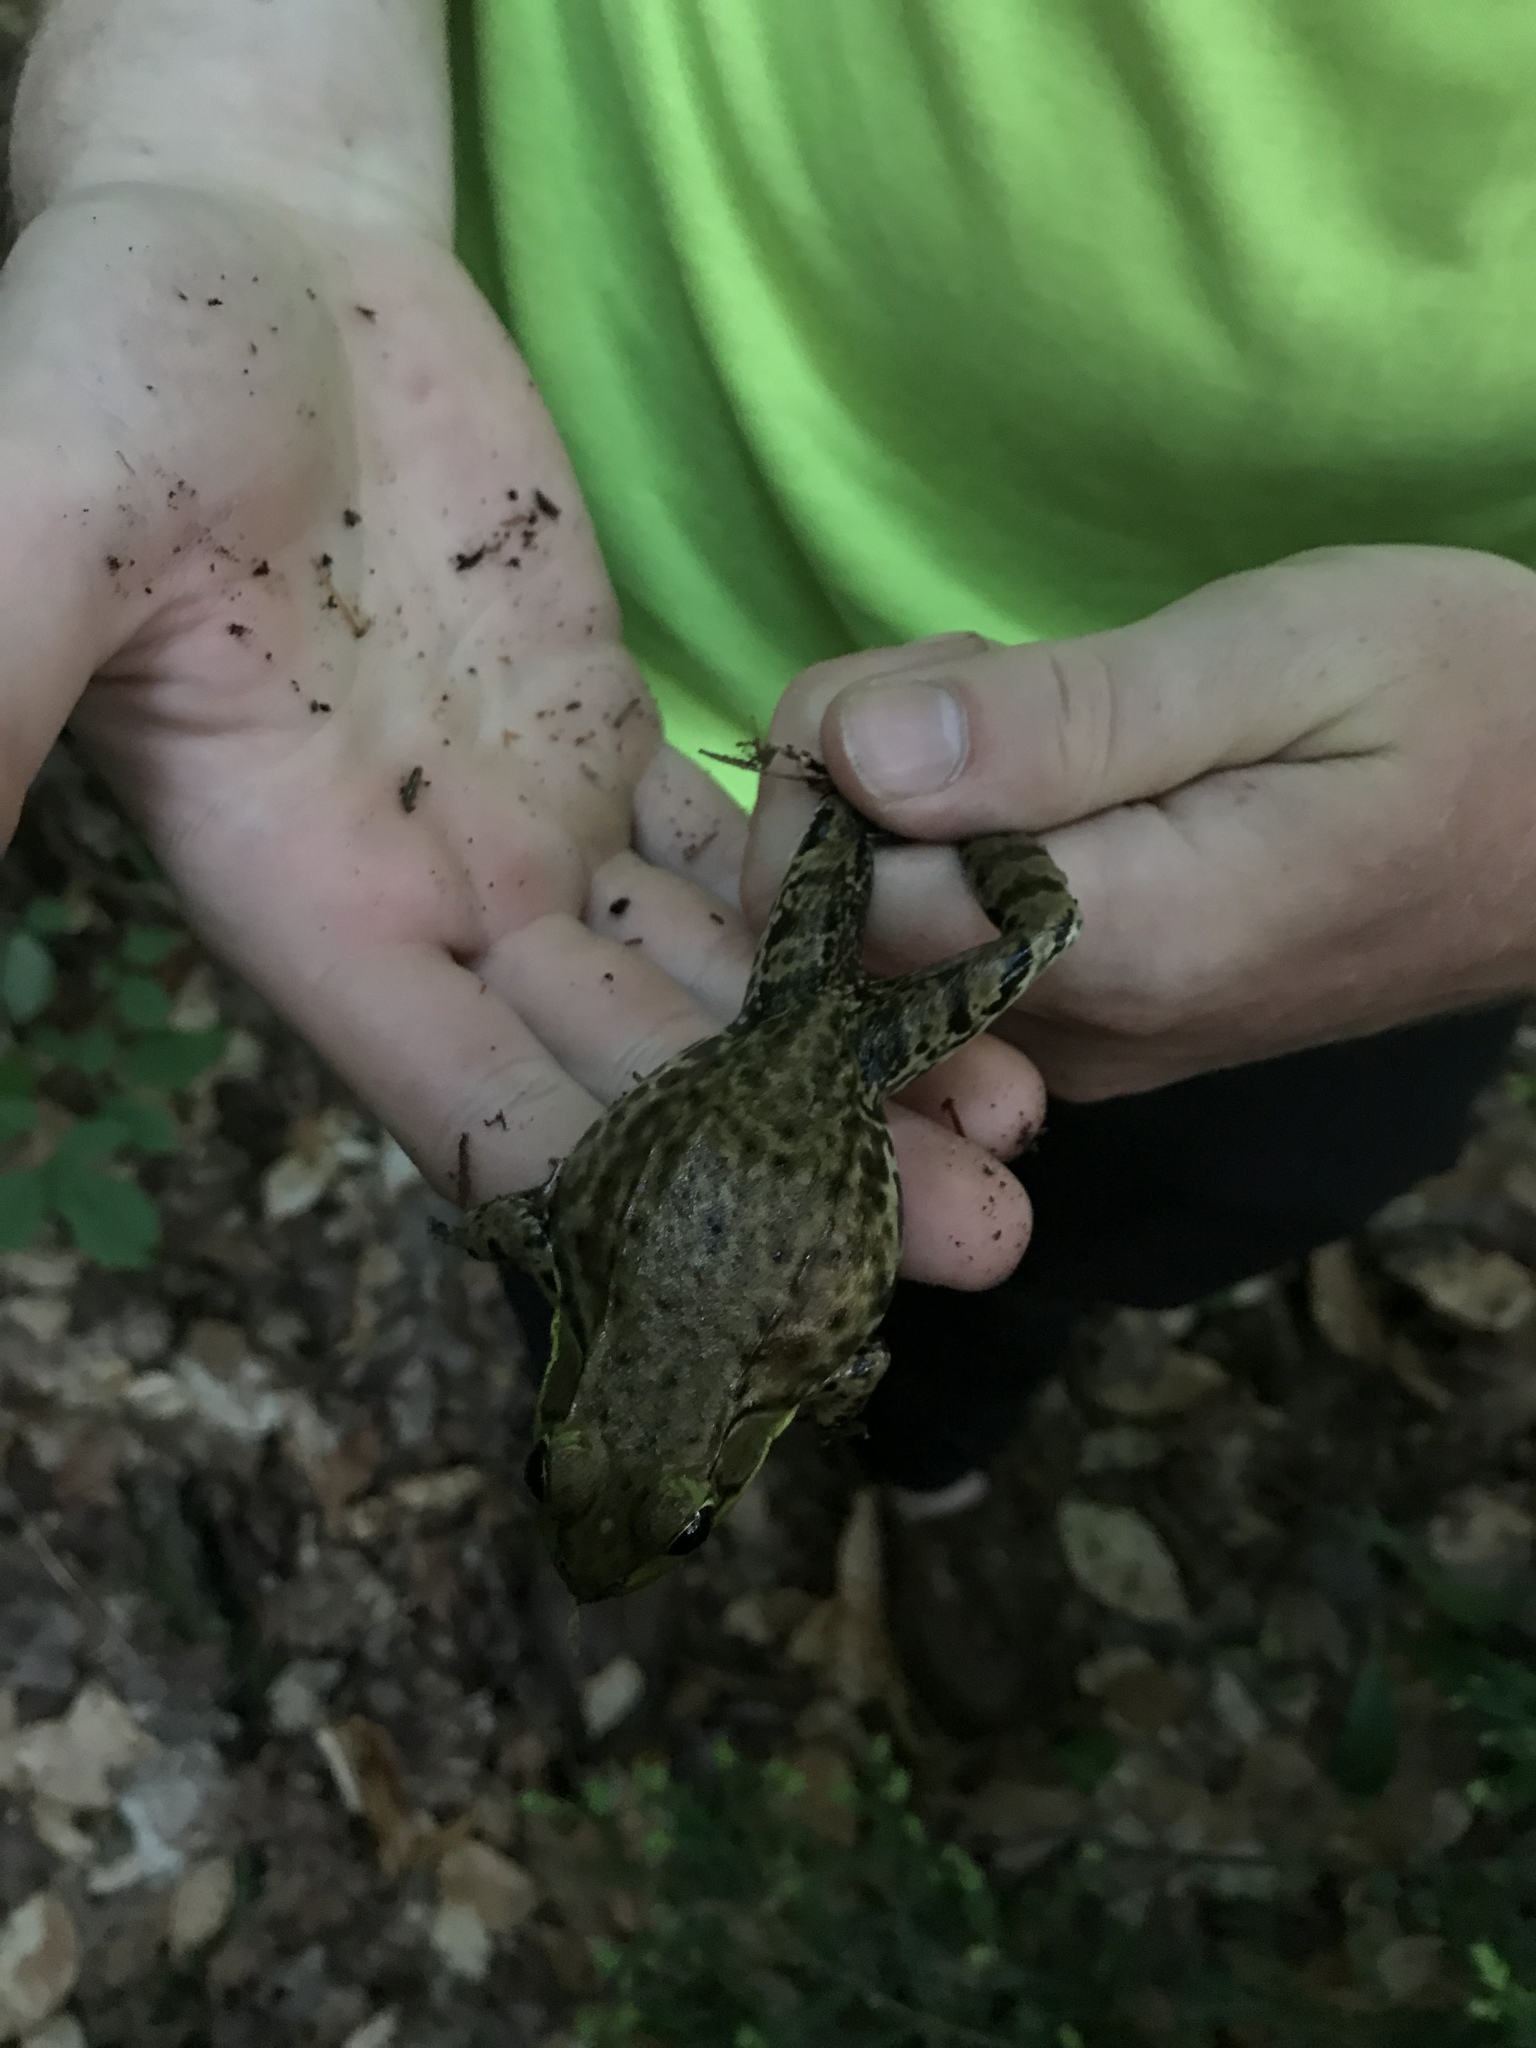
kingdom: Animalia
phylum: Chordata
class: Amphibia
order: Anura
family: Ranidae
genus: Lithobates
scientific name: Lithobates clamitans
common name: Green frog
